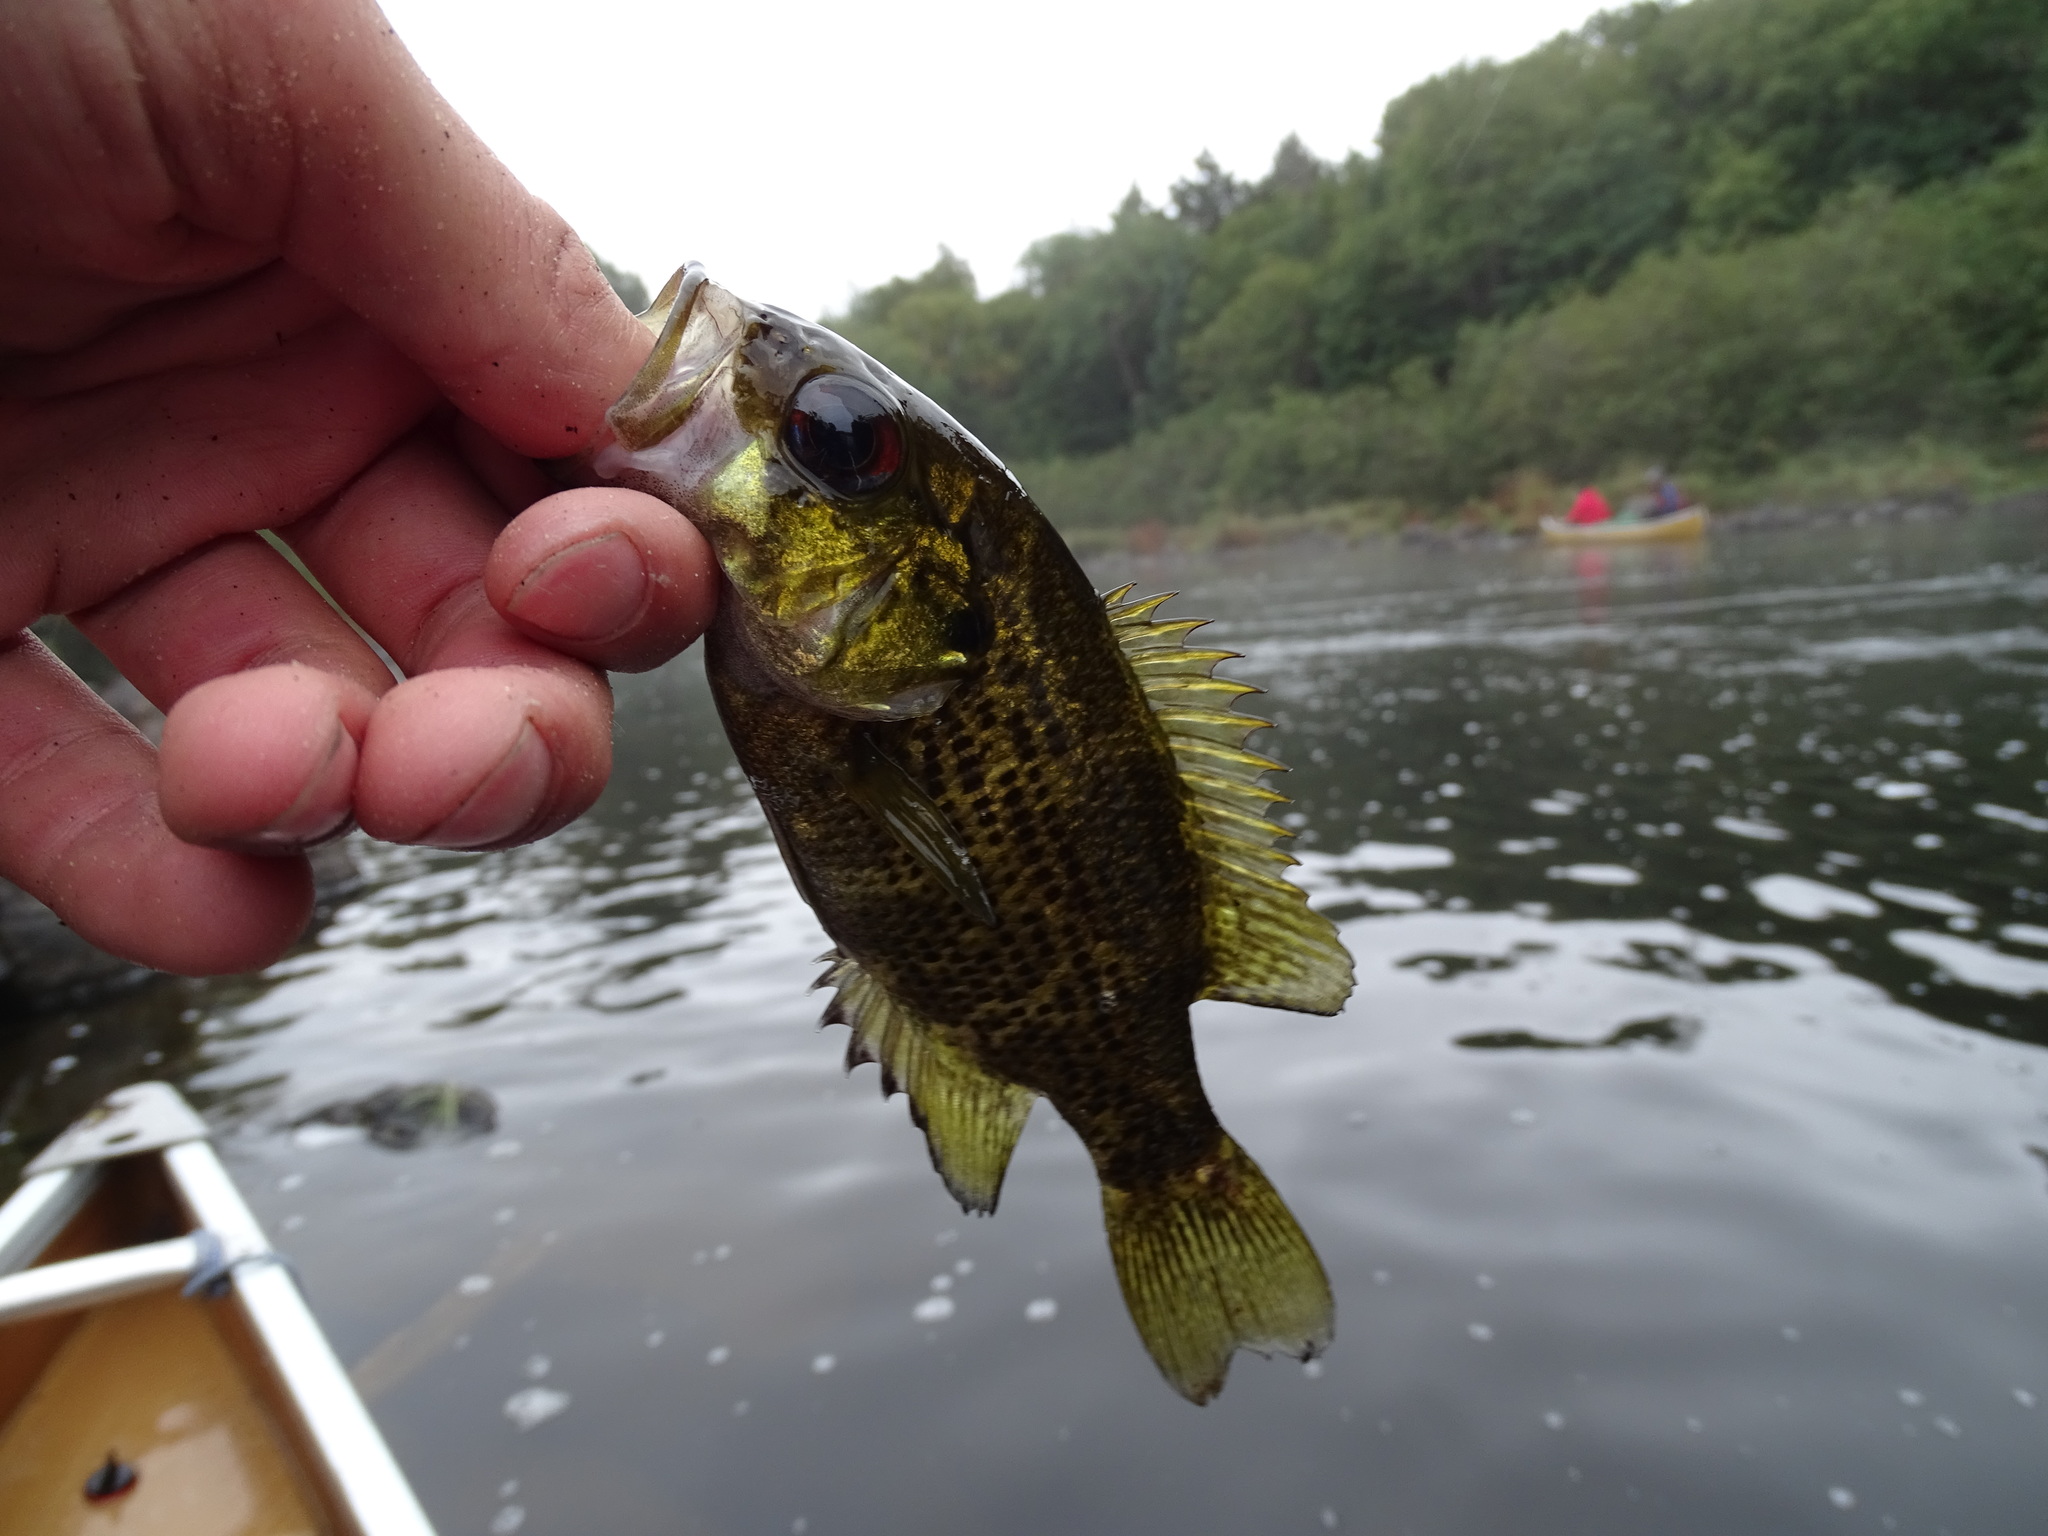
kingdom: Animalia
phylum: Chordata
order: Perciformes
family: Centrarchidae
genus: Ambloplites
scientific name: Ambloplites rupestris
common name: Rock bass
